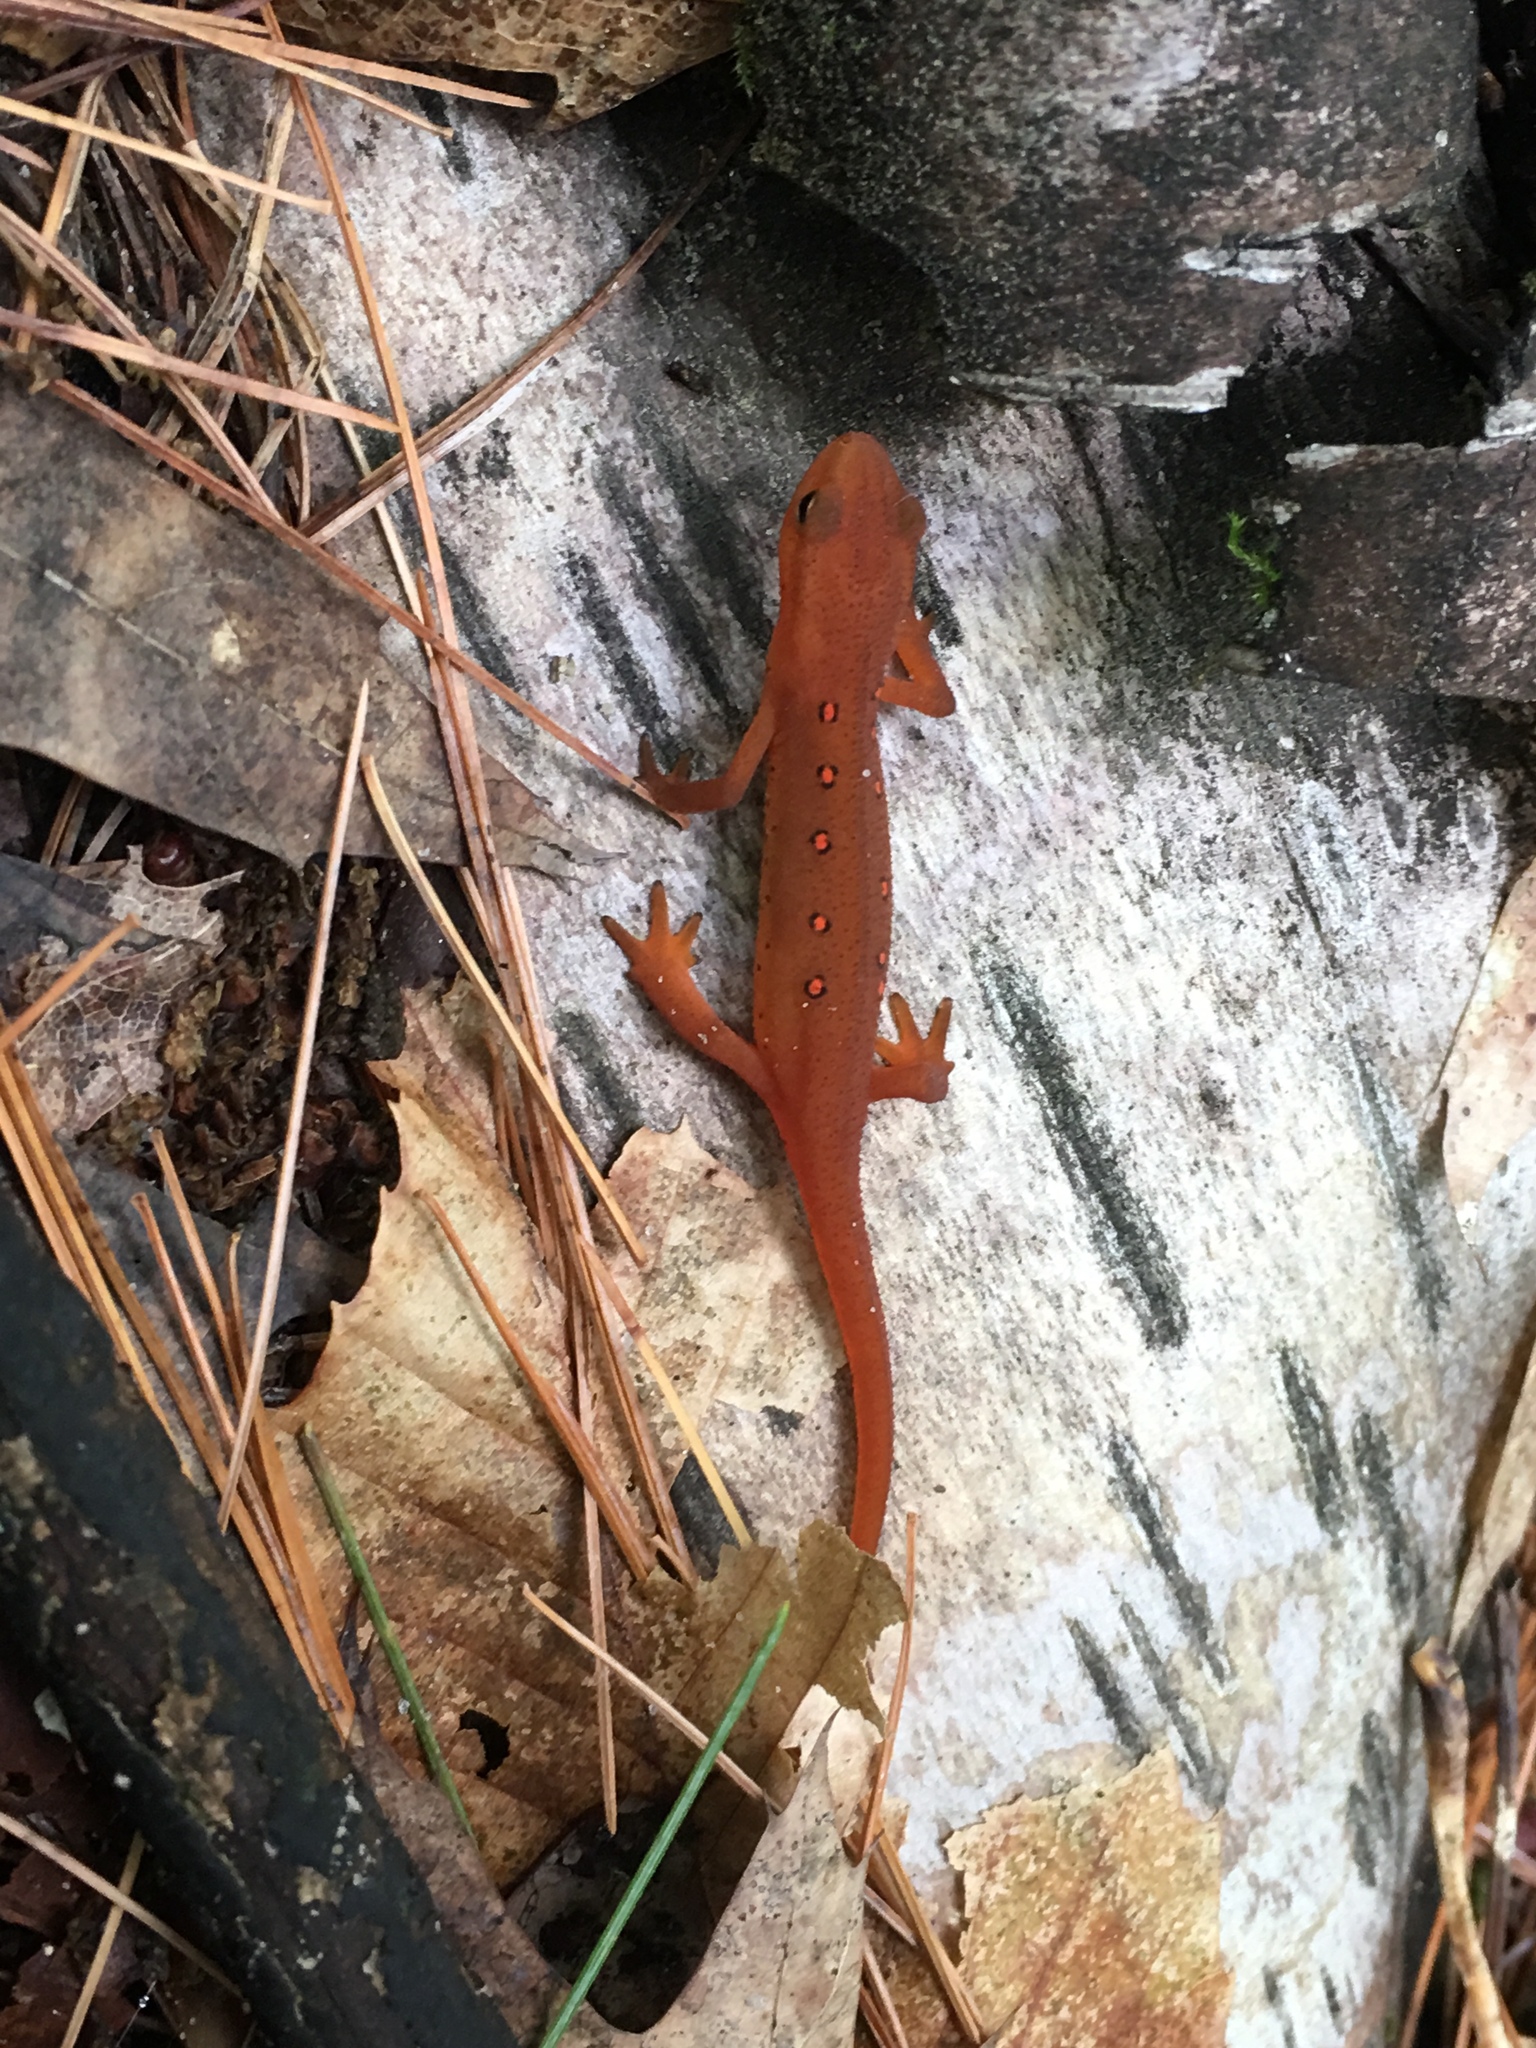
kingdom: Animalia
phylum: Chordata
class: Amphibia
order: Caudata
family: Salamandridae
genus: Notophthalmus
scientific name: Notophthalmus viridescens
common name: Eastern newt
